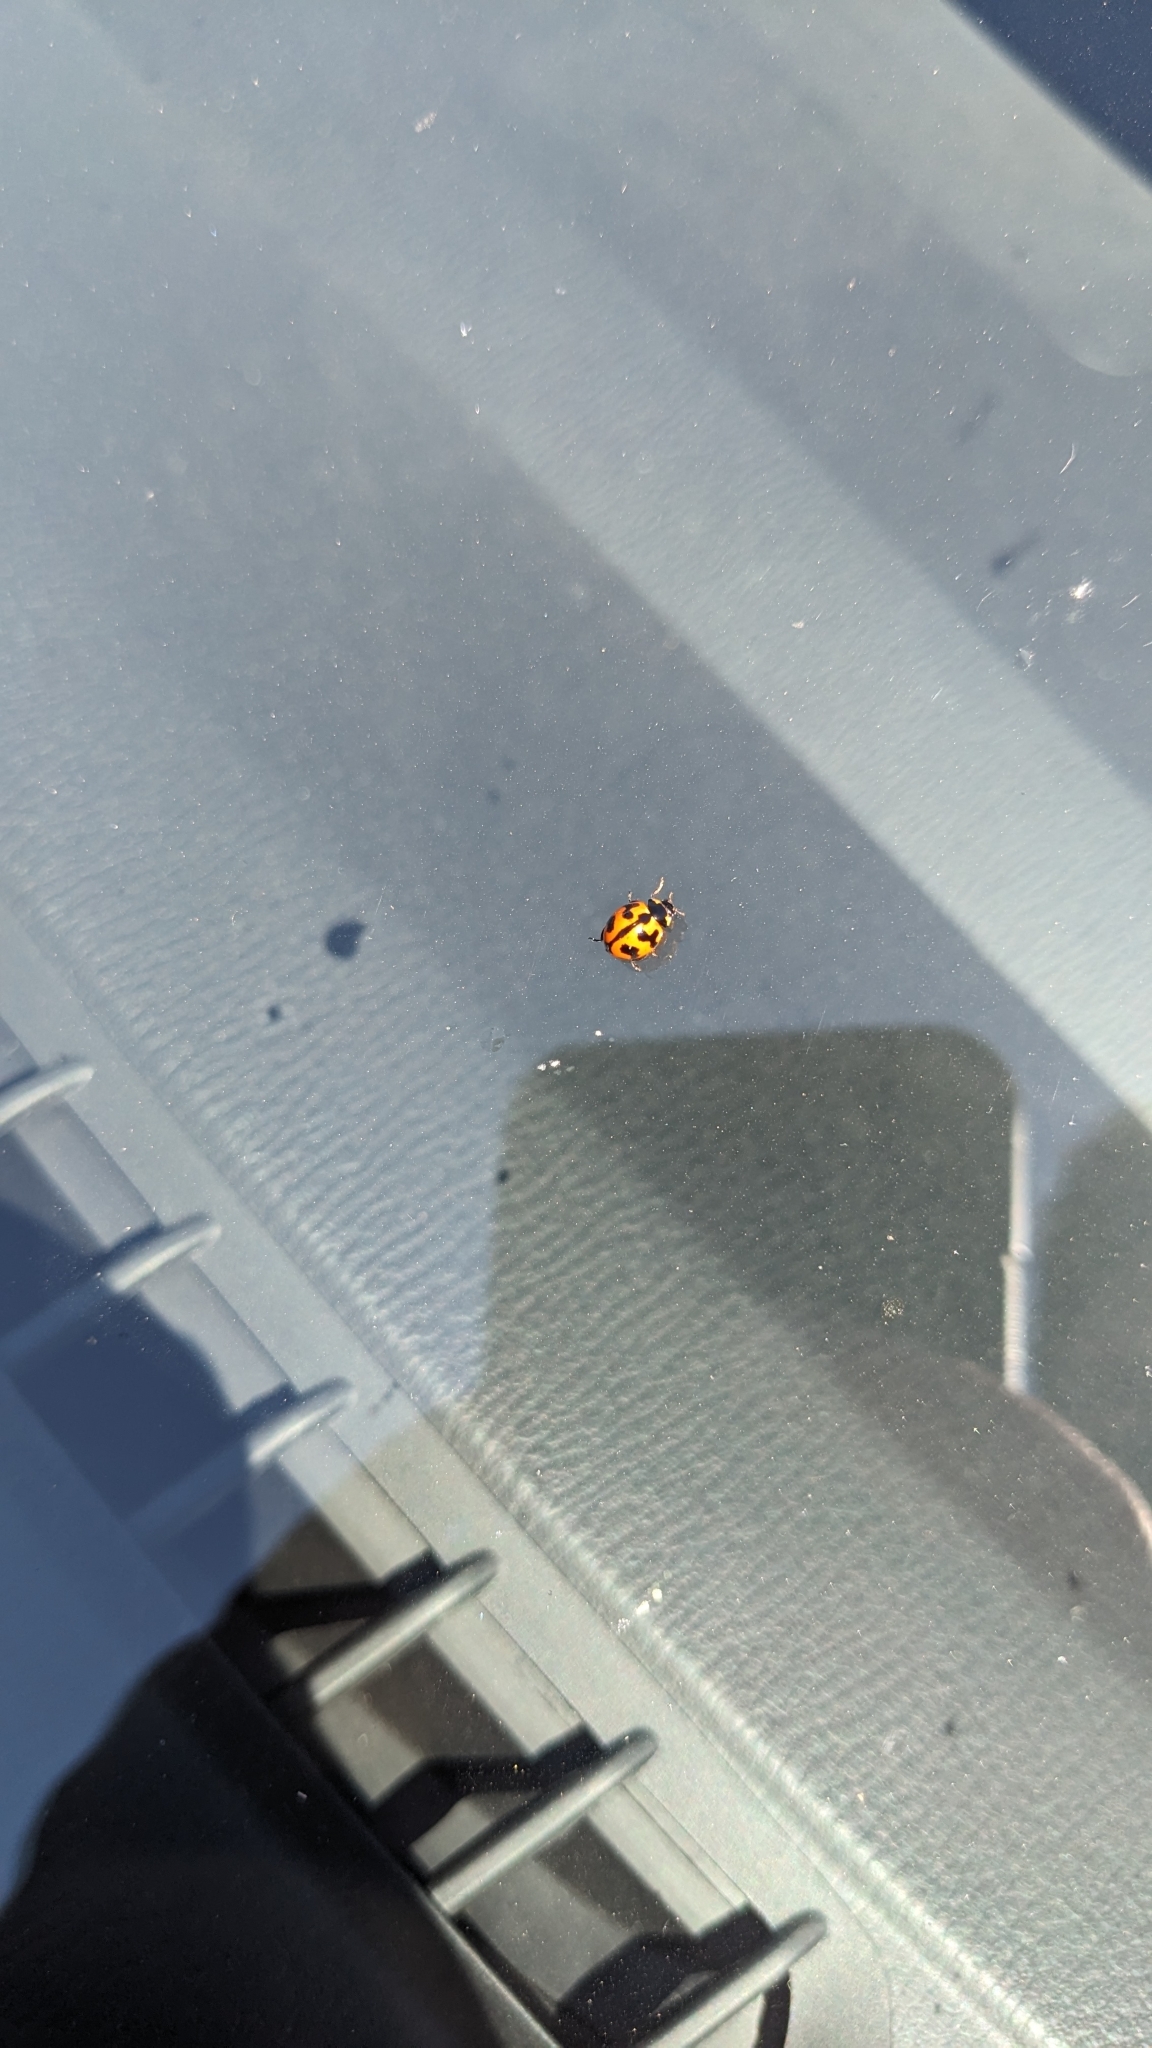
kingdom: Animalia
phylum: Arthropoda
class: Insecta
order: Coleoptera
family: Coccinellidae
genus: Coccinella
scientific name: Coccinella transversalis
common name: Transverse lady beetle
